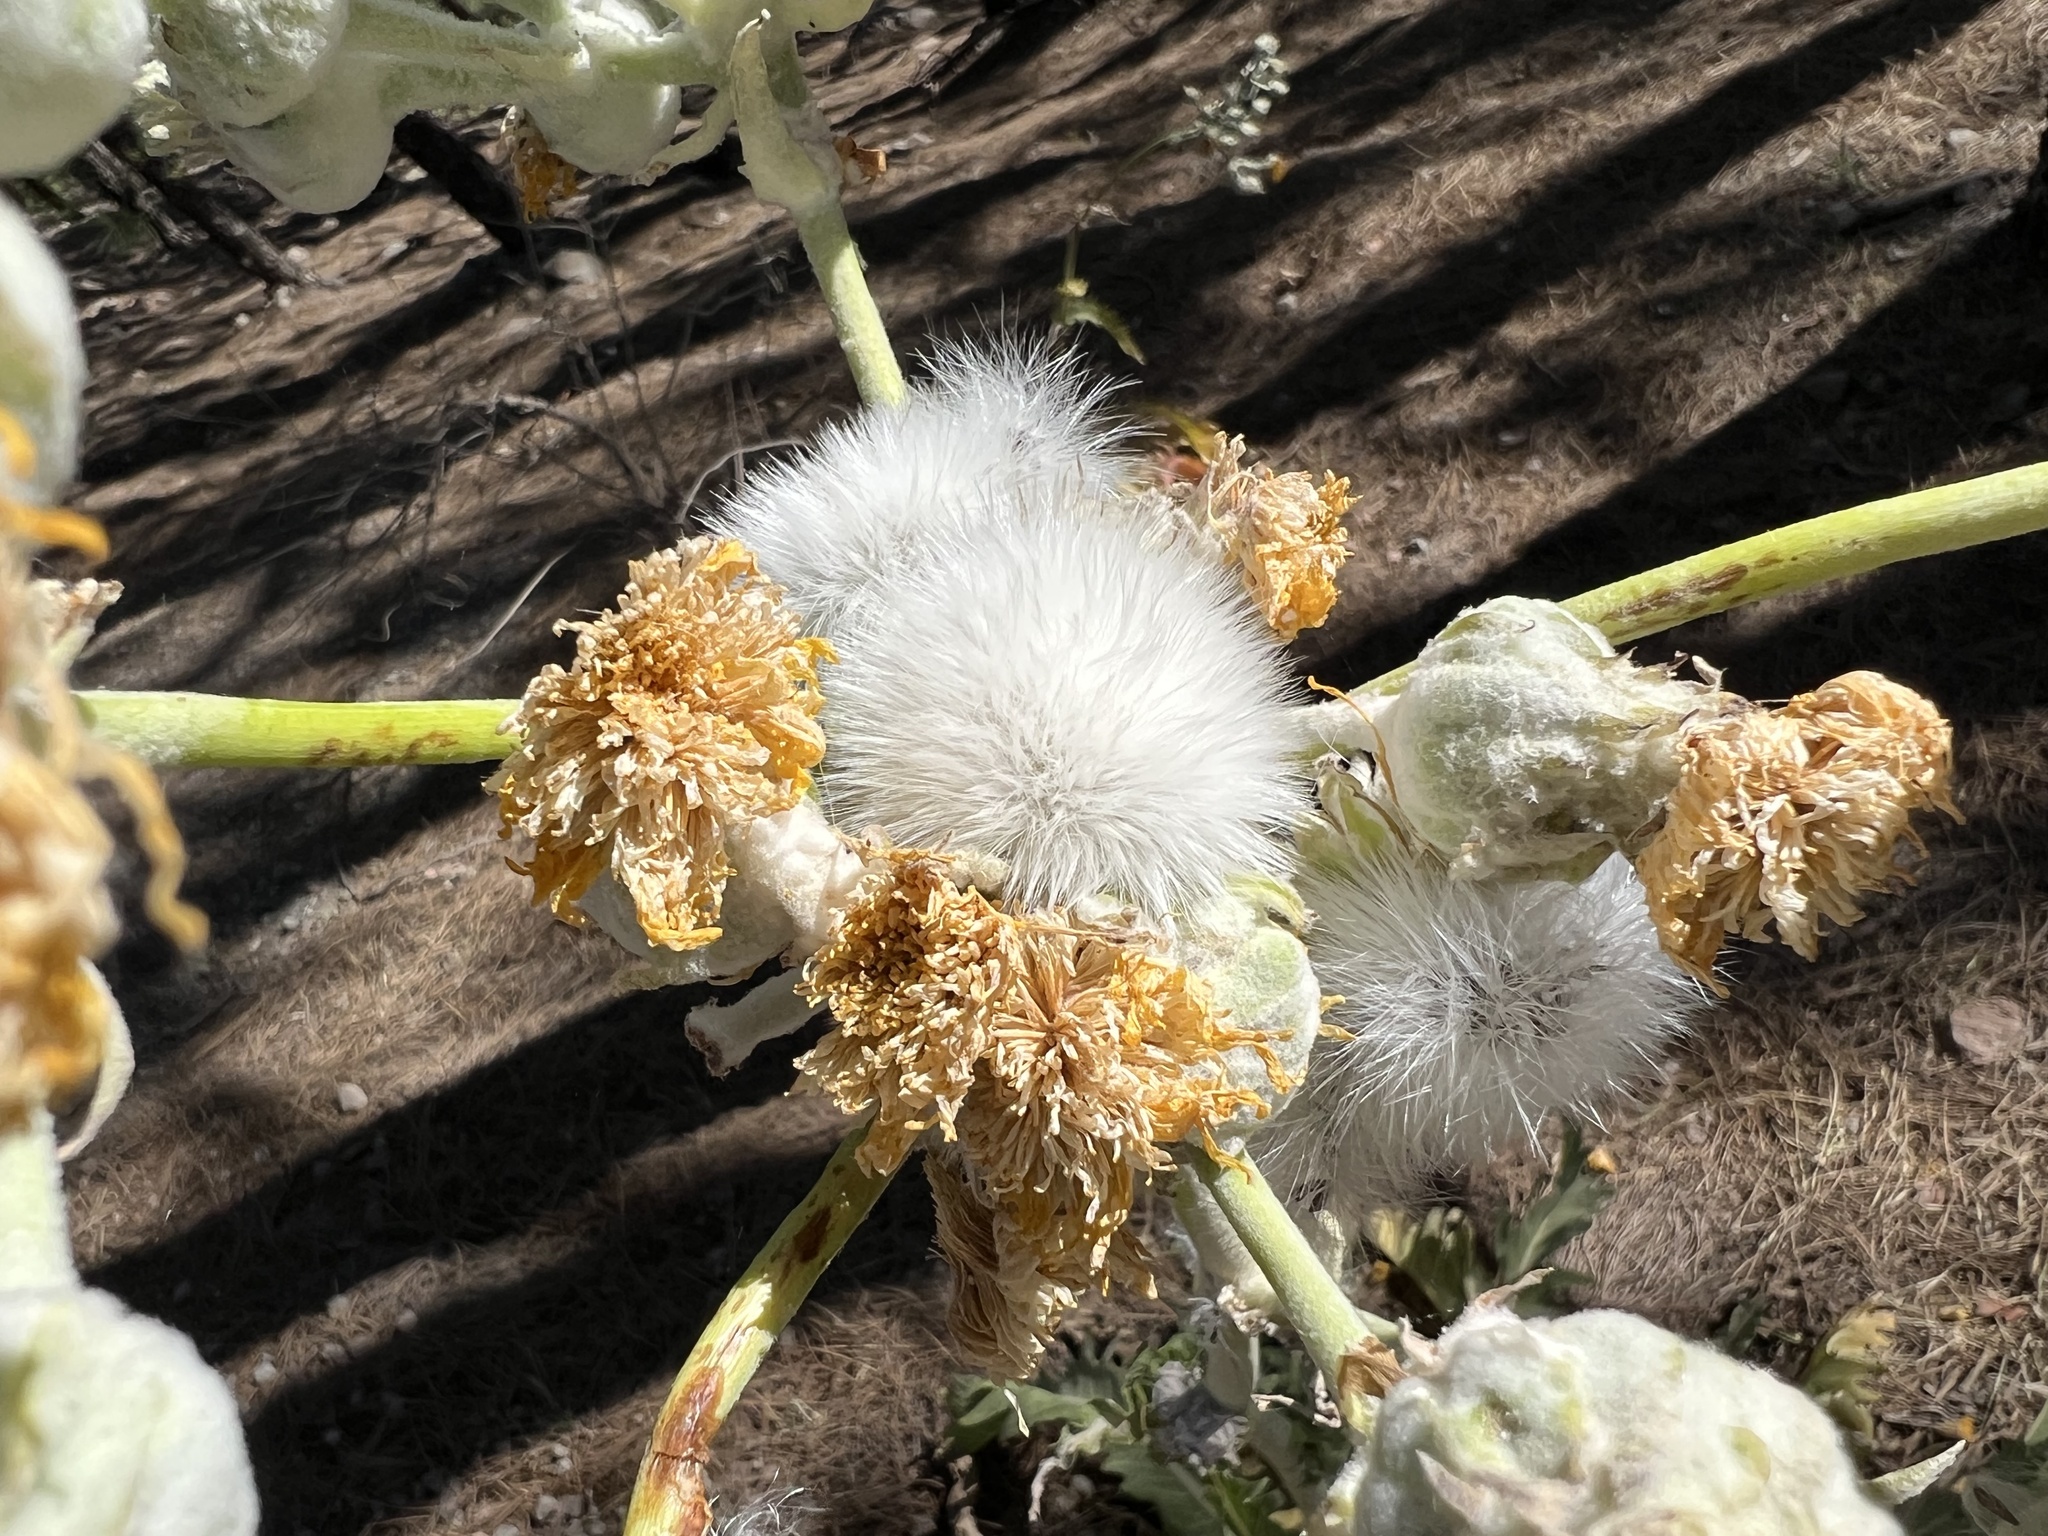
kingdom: Plantae
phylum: Tracheophyta
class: Magnoliopsida
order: Asterales
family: Asteraceae
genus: Sonchus
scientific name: Sonchus acaulis
